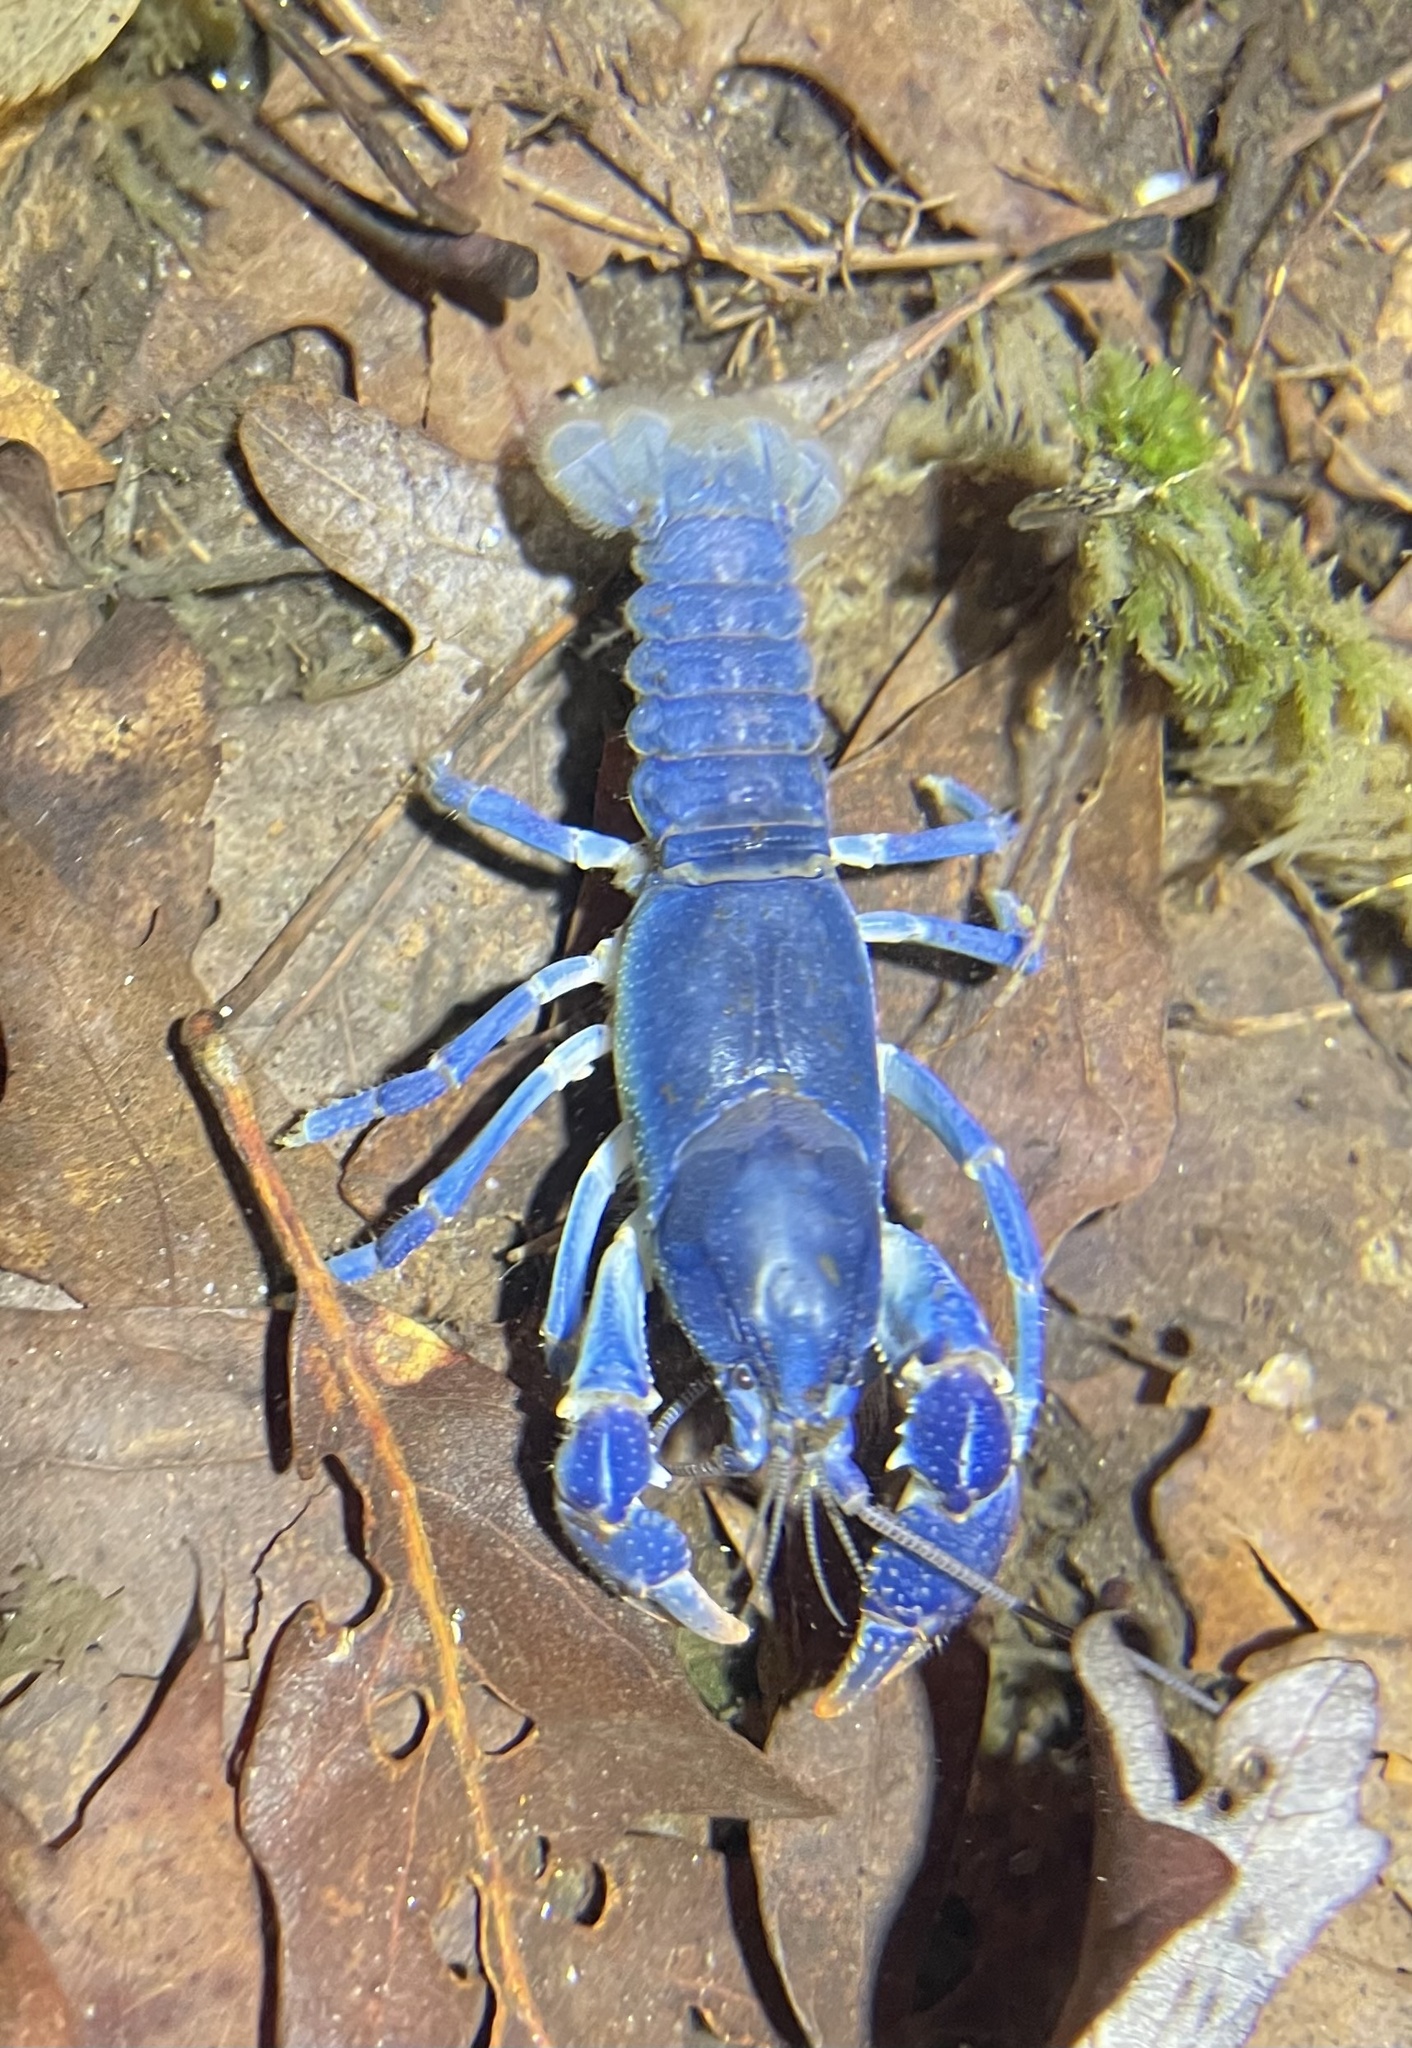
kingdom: Animalia
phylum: Arthropoda
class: Malacostraca
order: Decapoda
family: Cambaridae
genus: Cambarus
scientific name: Cambarus dubius
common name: Upland burrowing crayfish
